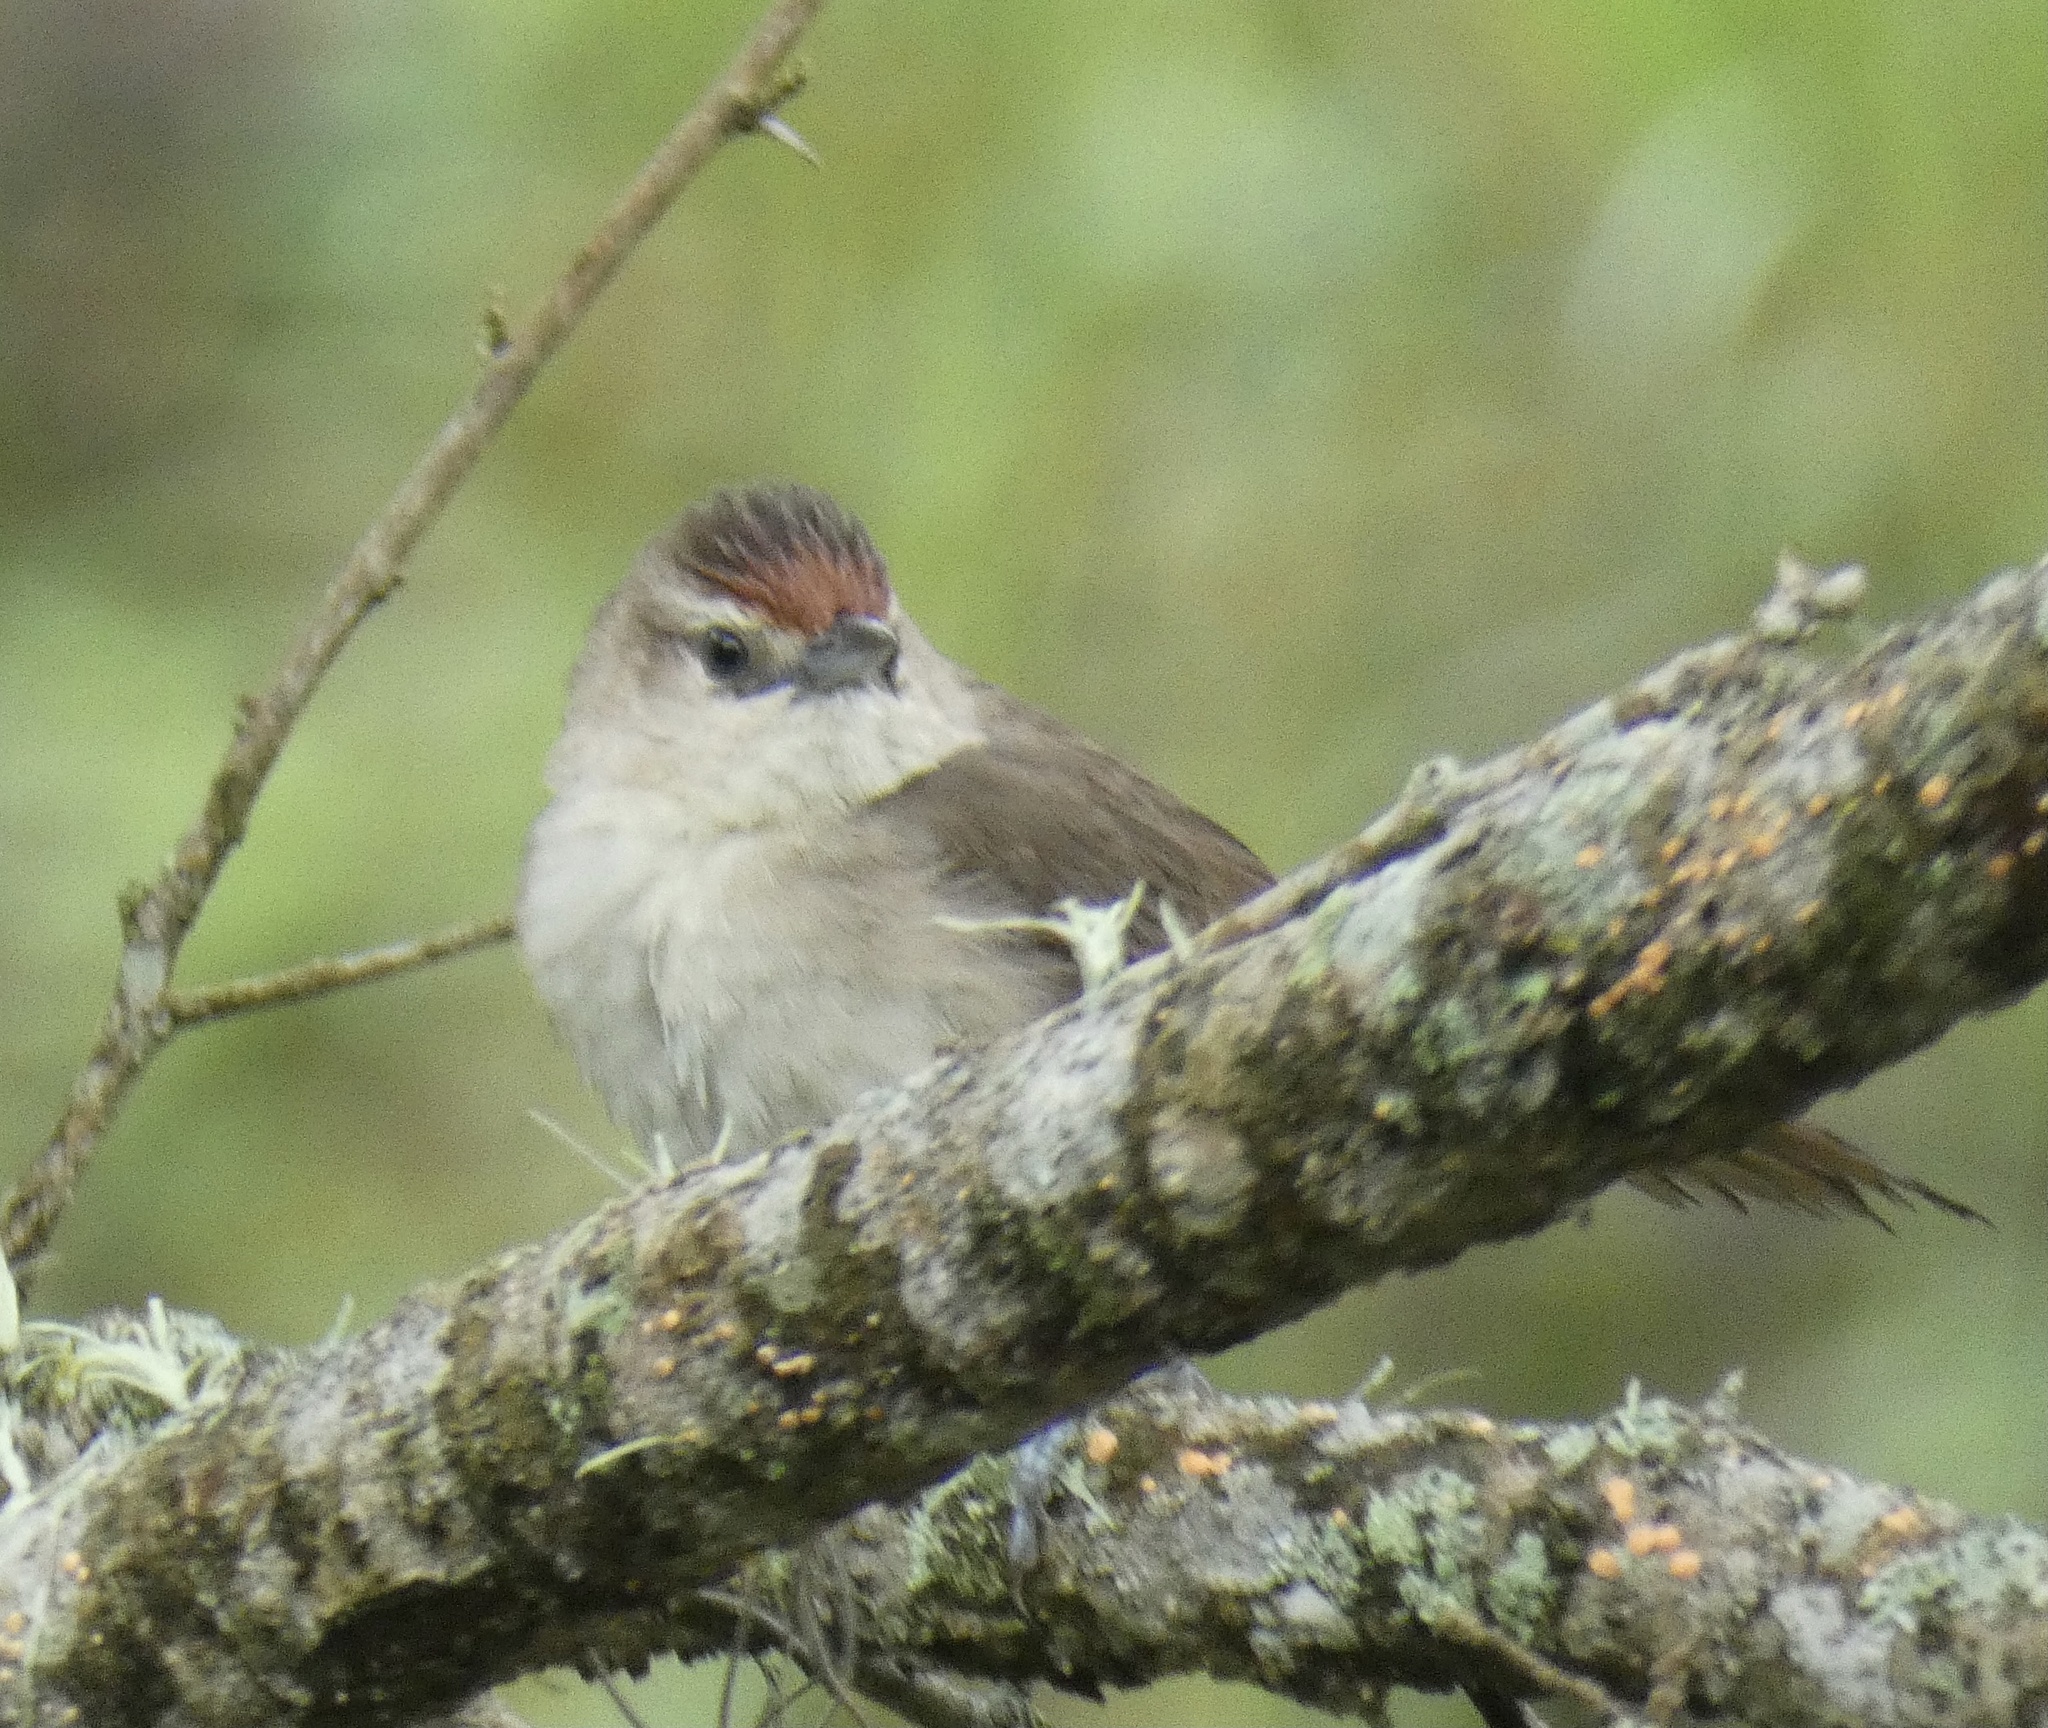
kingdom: Animalia
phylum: Chordata
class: Aves
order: Passeriformes
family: Furnariidae
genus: Phacellodomus
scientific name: Phacellodomus rufifrons
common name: Rufous-fronted thornbird
